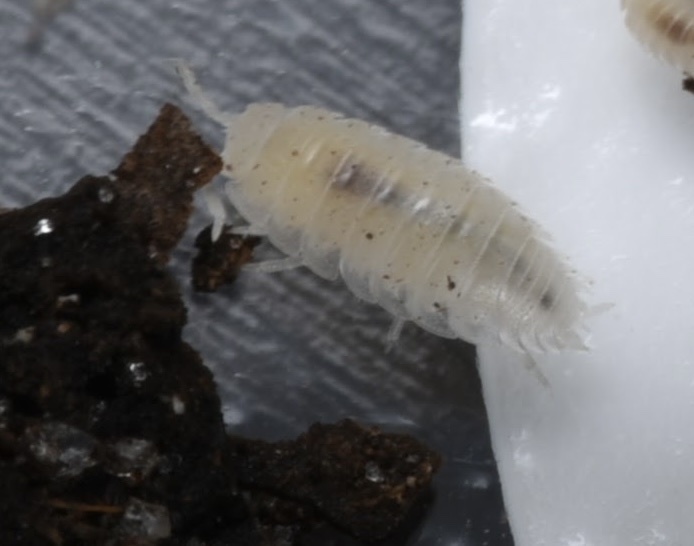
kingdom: Animalia
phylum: Arthropoda
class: Malacostraca
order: Isopoda
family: Platyarthridae
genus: Trichorhina
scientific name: Trichorhina tomentosa
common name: Pillbug
